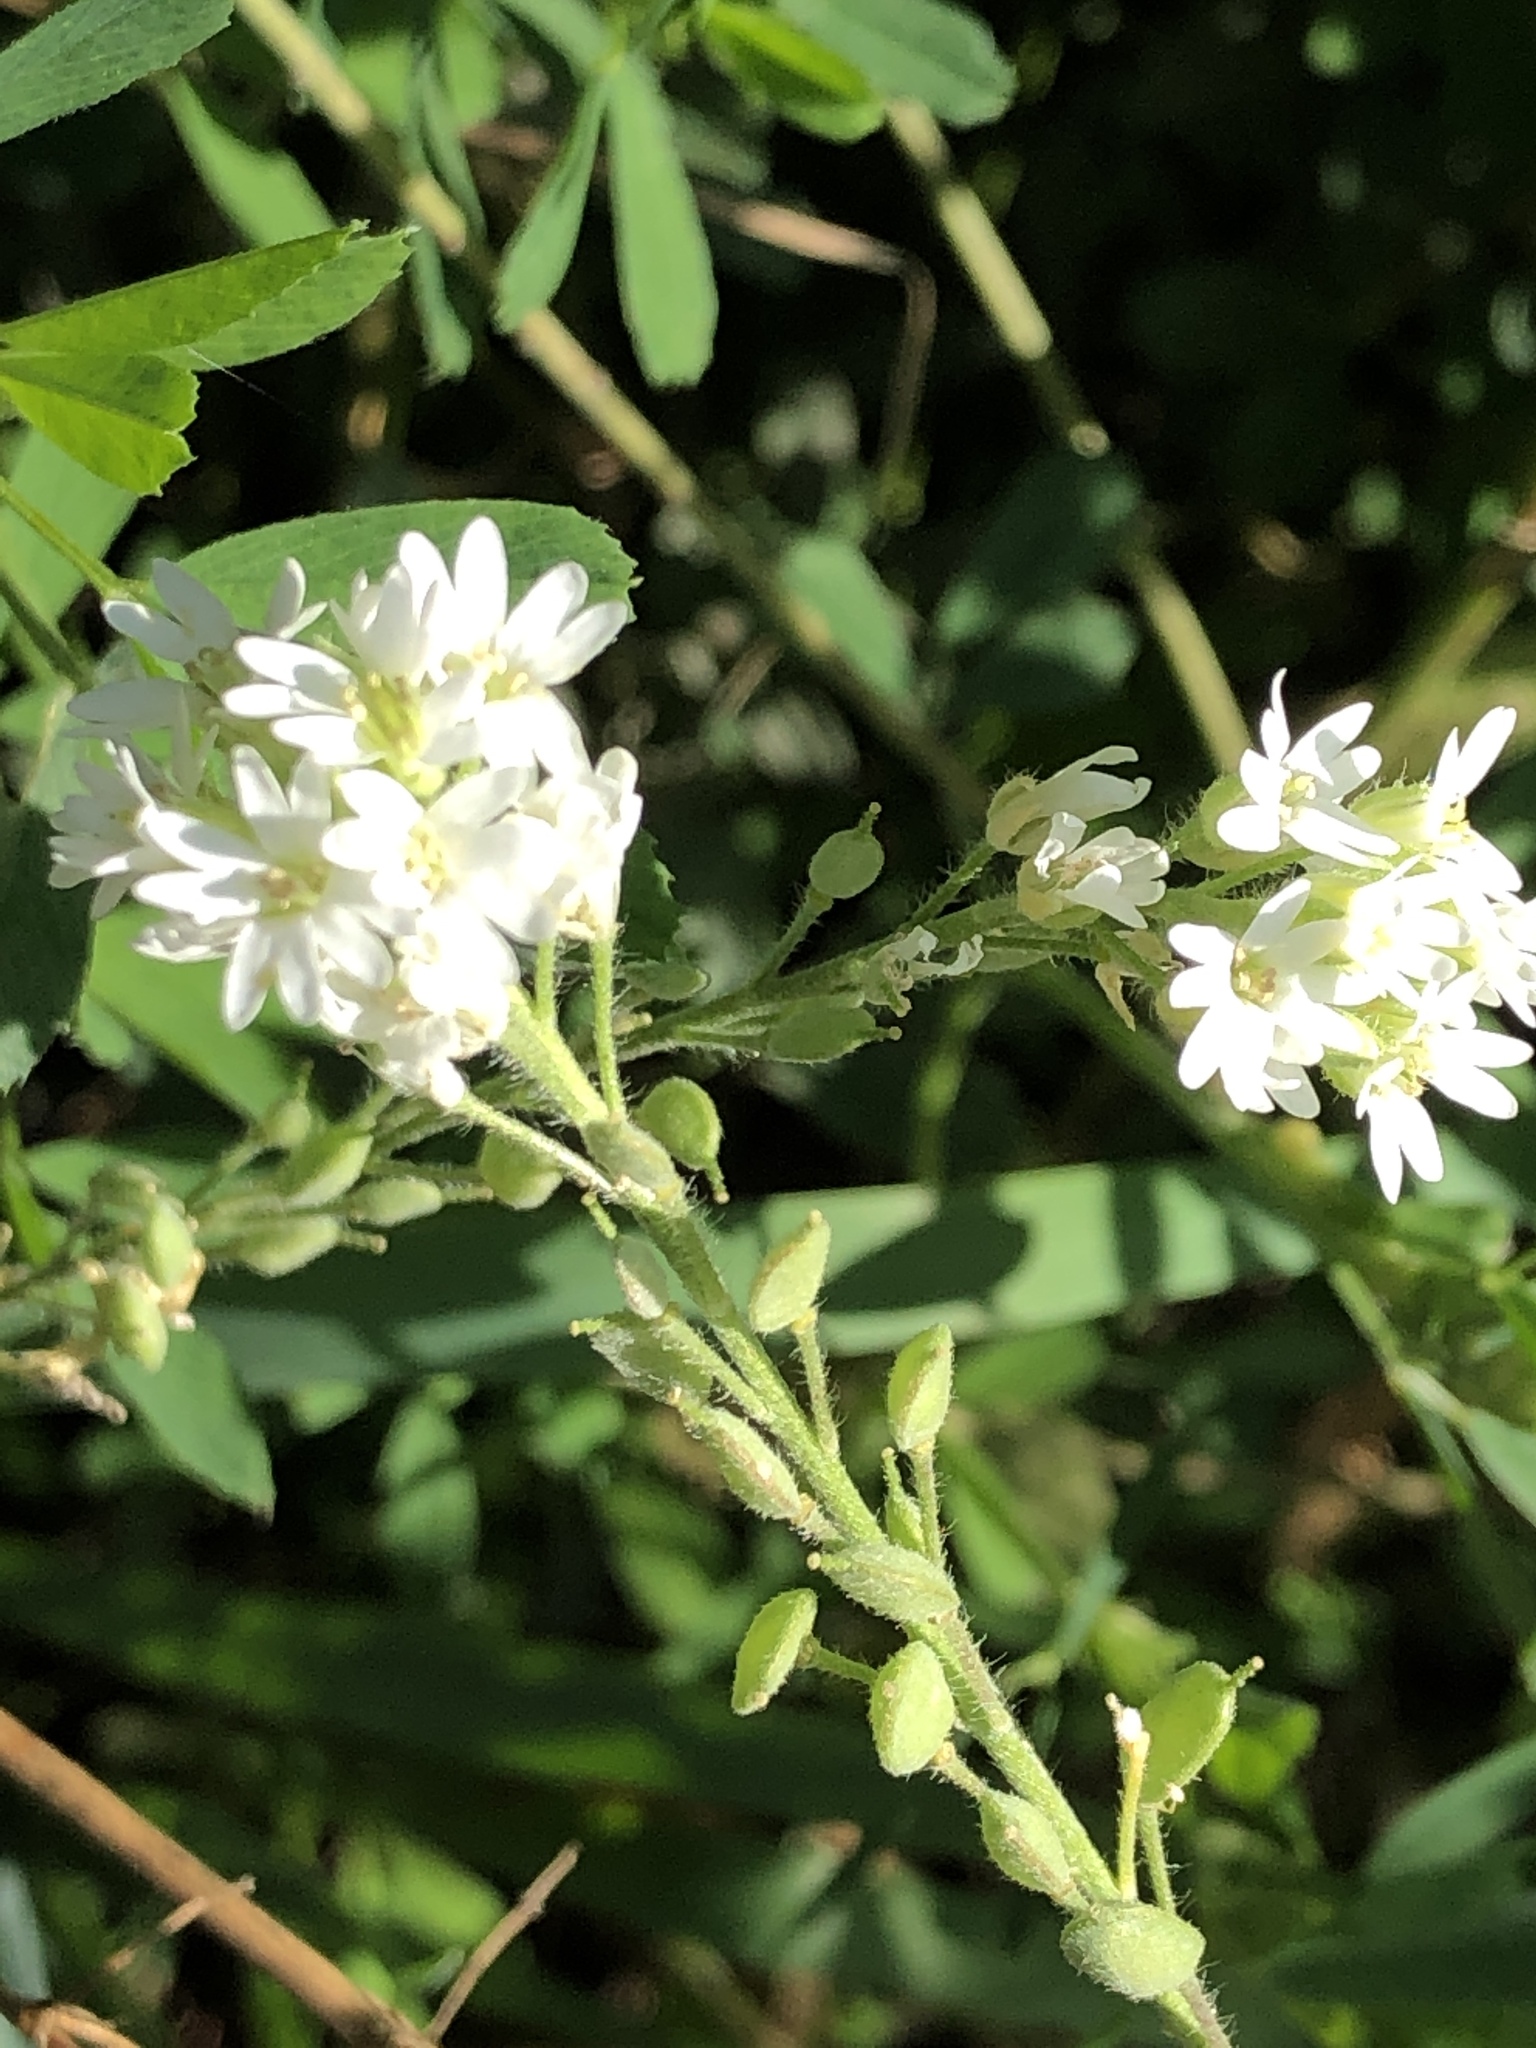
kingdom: Plantae
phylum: Tracheophyta
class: Magnoliopsida
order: Brassicales
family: Brassicaceae
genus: Berteroa
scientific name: Berteroa incana
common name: Hoary alison
